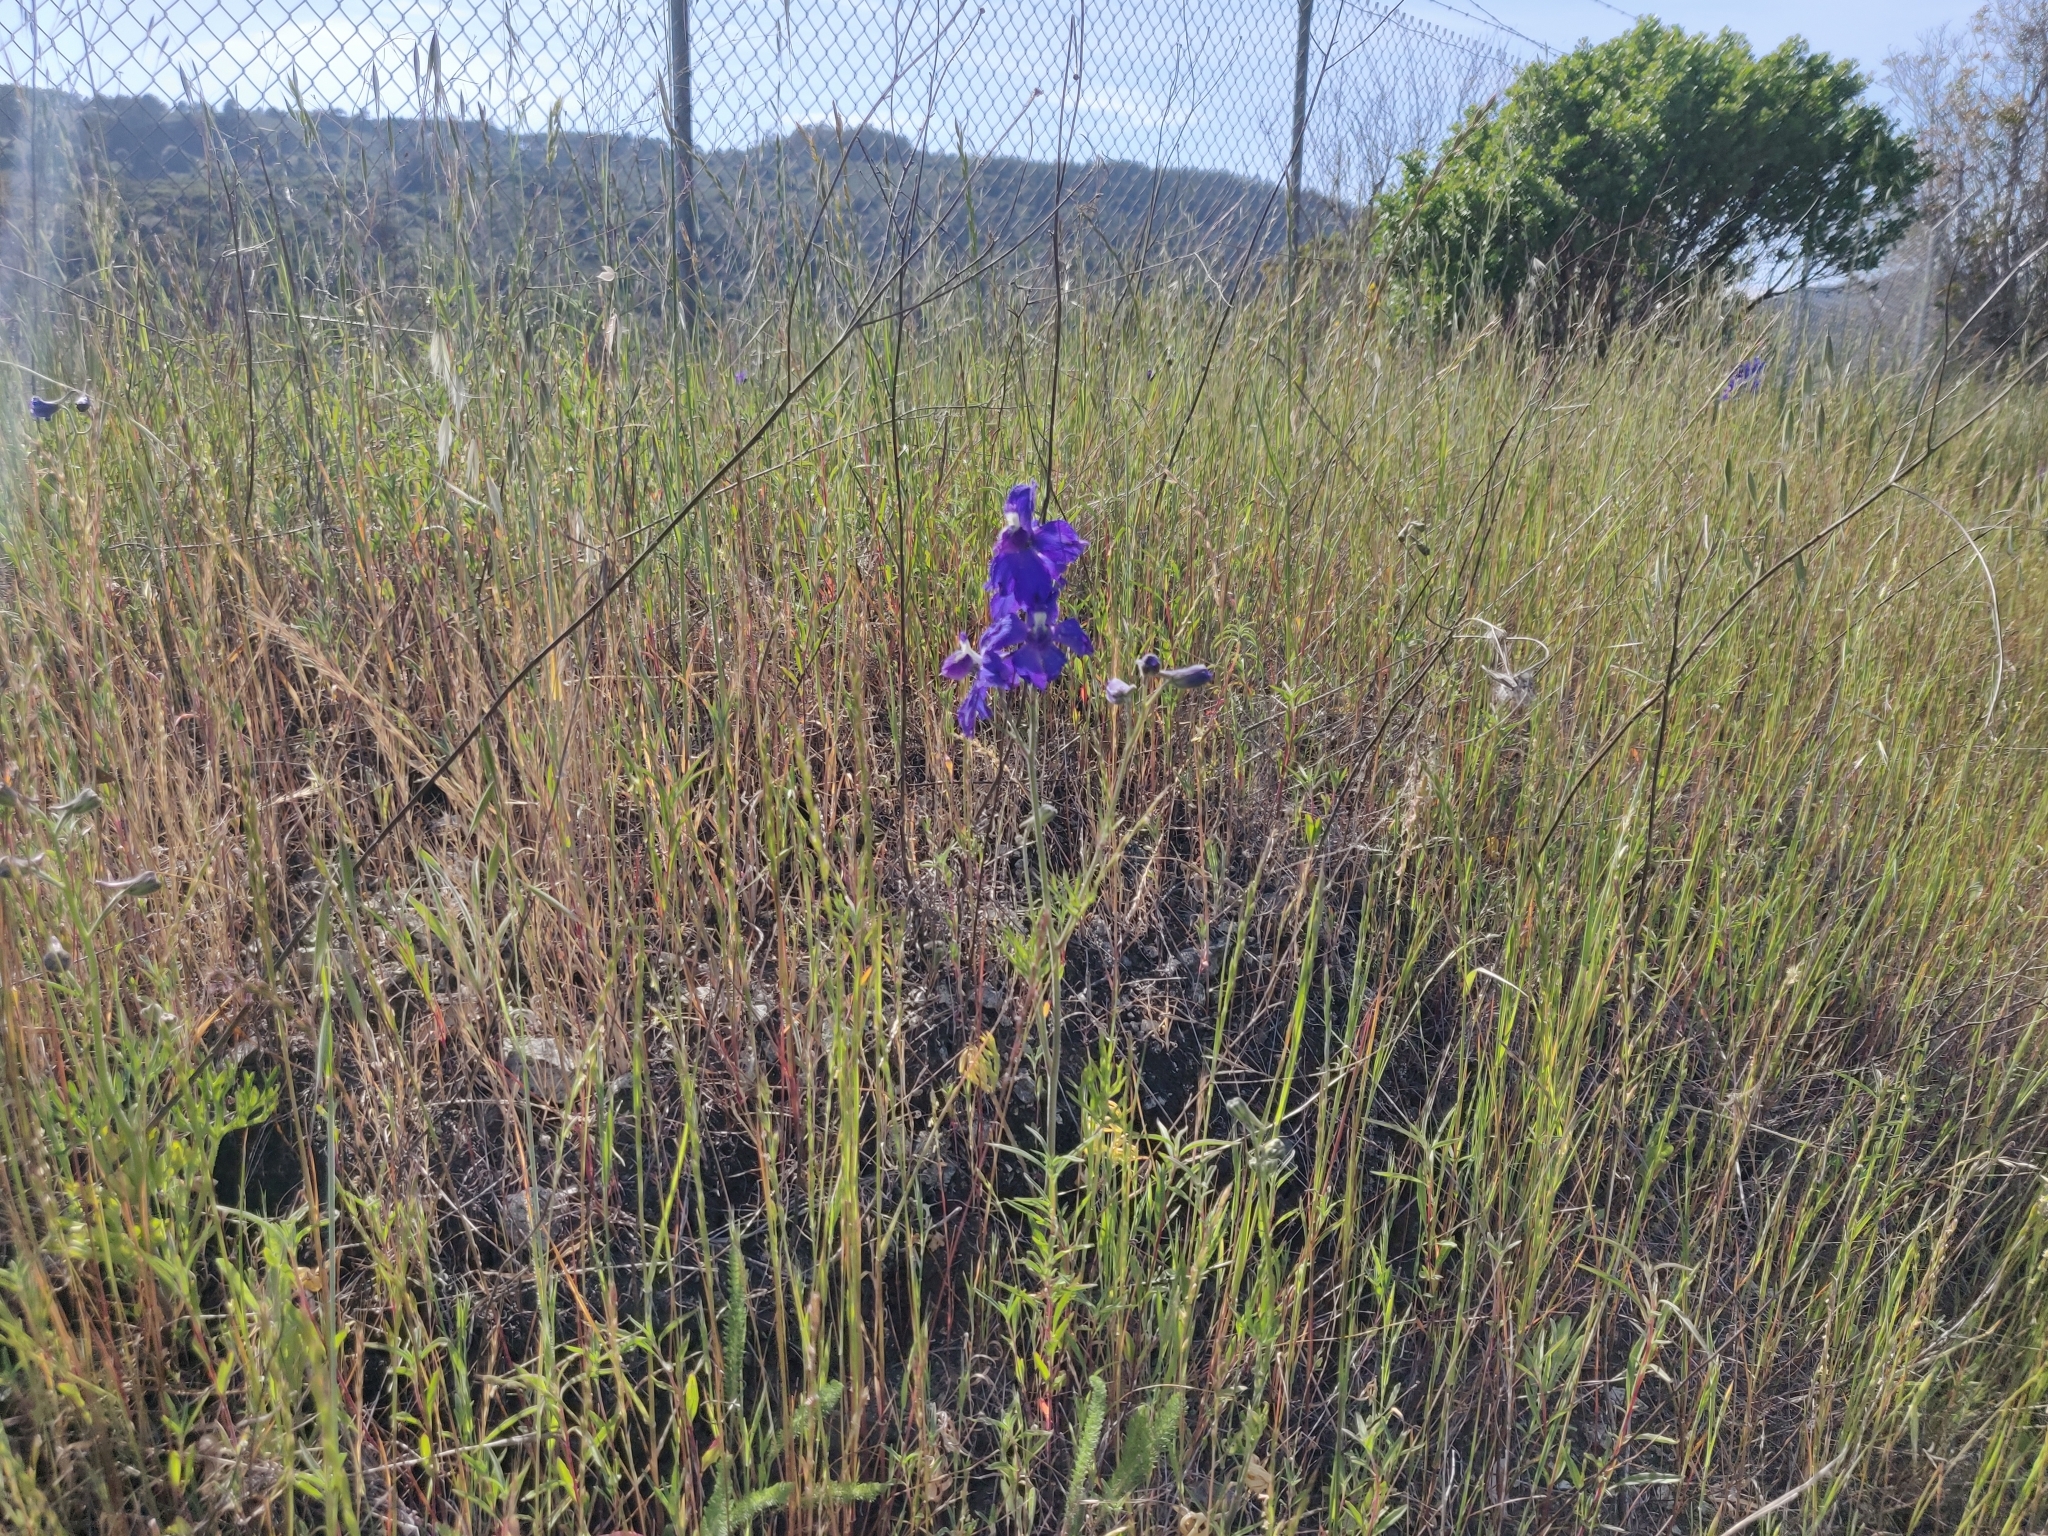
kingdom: Plantae
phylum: Tracheophyta
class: Magnoliopsida
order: Ranunculales
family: Ranunculaceae
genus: Delphinium
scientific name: Delphinium variegatum
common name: Royal larkspur
